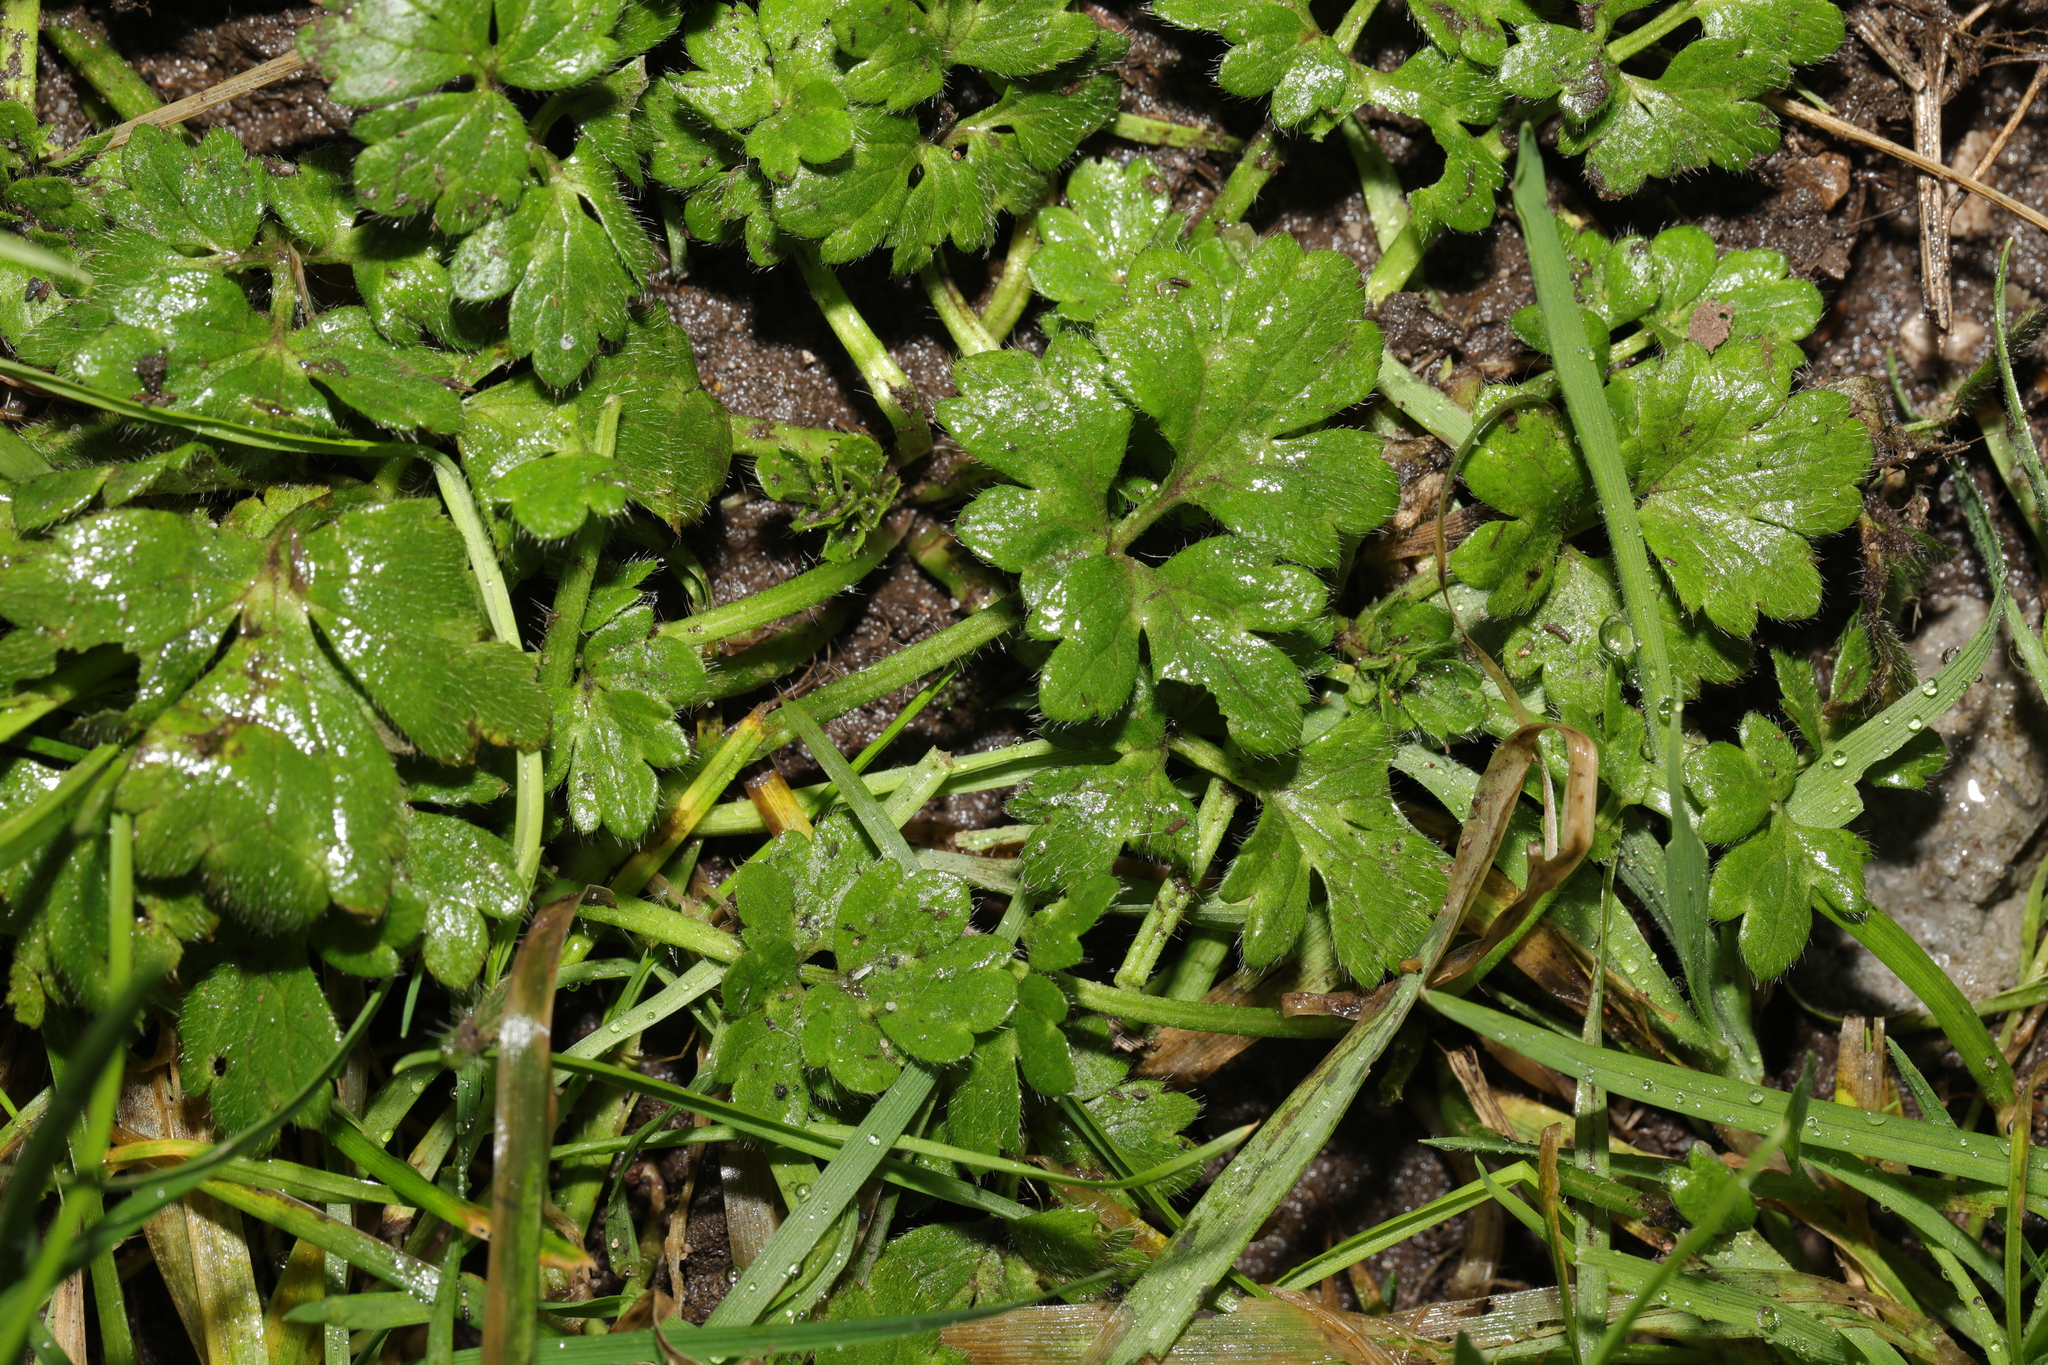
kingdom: Plantae
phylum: Tracheophyta
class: Magnoliopsida
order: Ranunculales
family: Ranunculaceae
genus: Ranunculus
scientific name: Ranunculus repens
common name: Creeping buttercup
